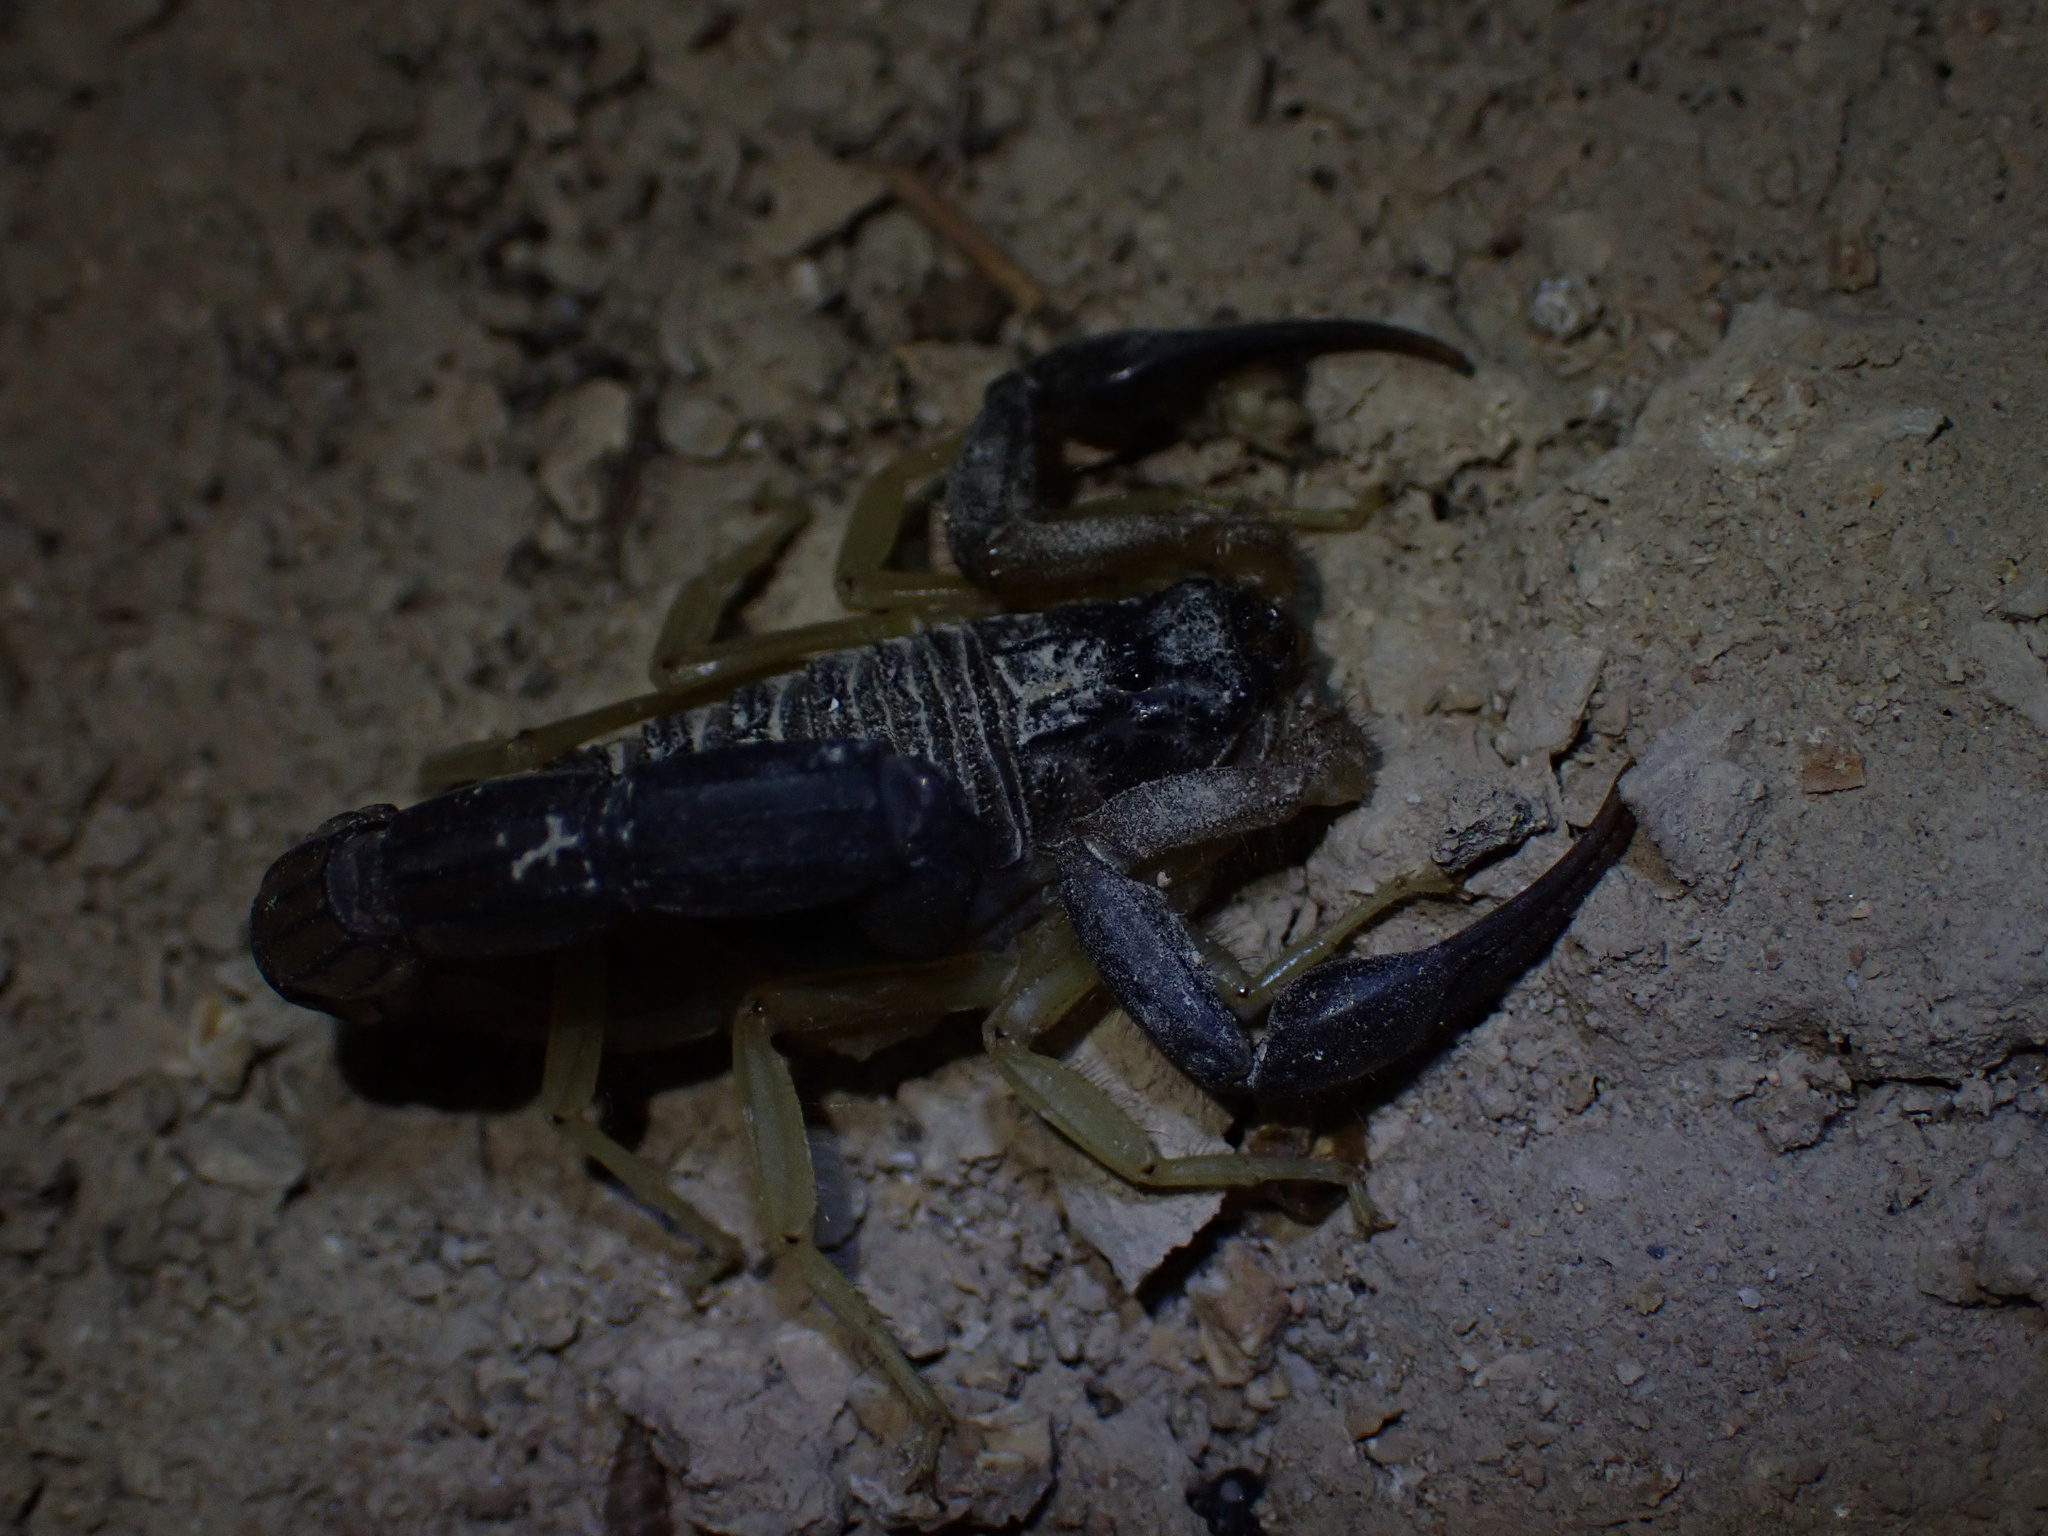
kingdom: Animalia
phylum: Arthropoda
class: Arachnida
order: Scorpiones
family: Buthidae
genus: Hottentotta
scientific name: Hottentotta jayakari
